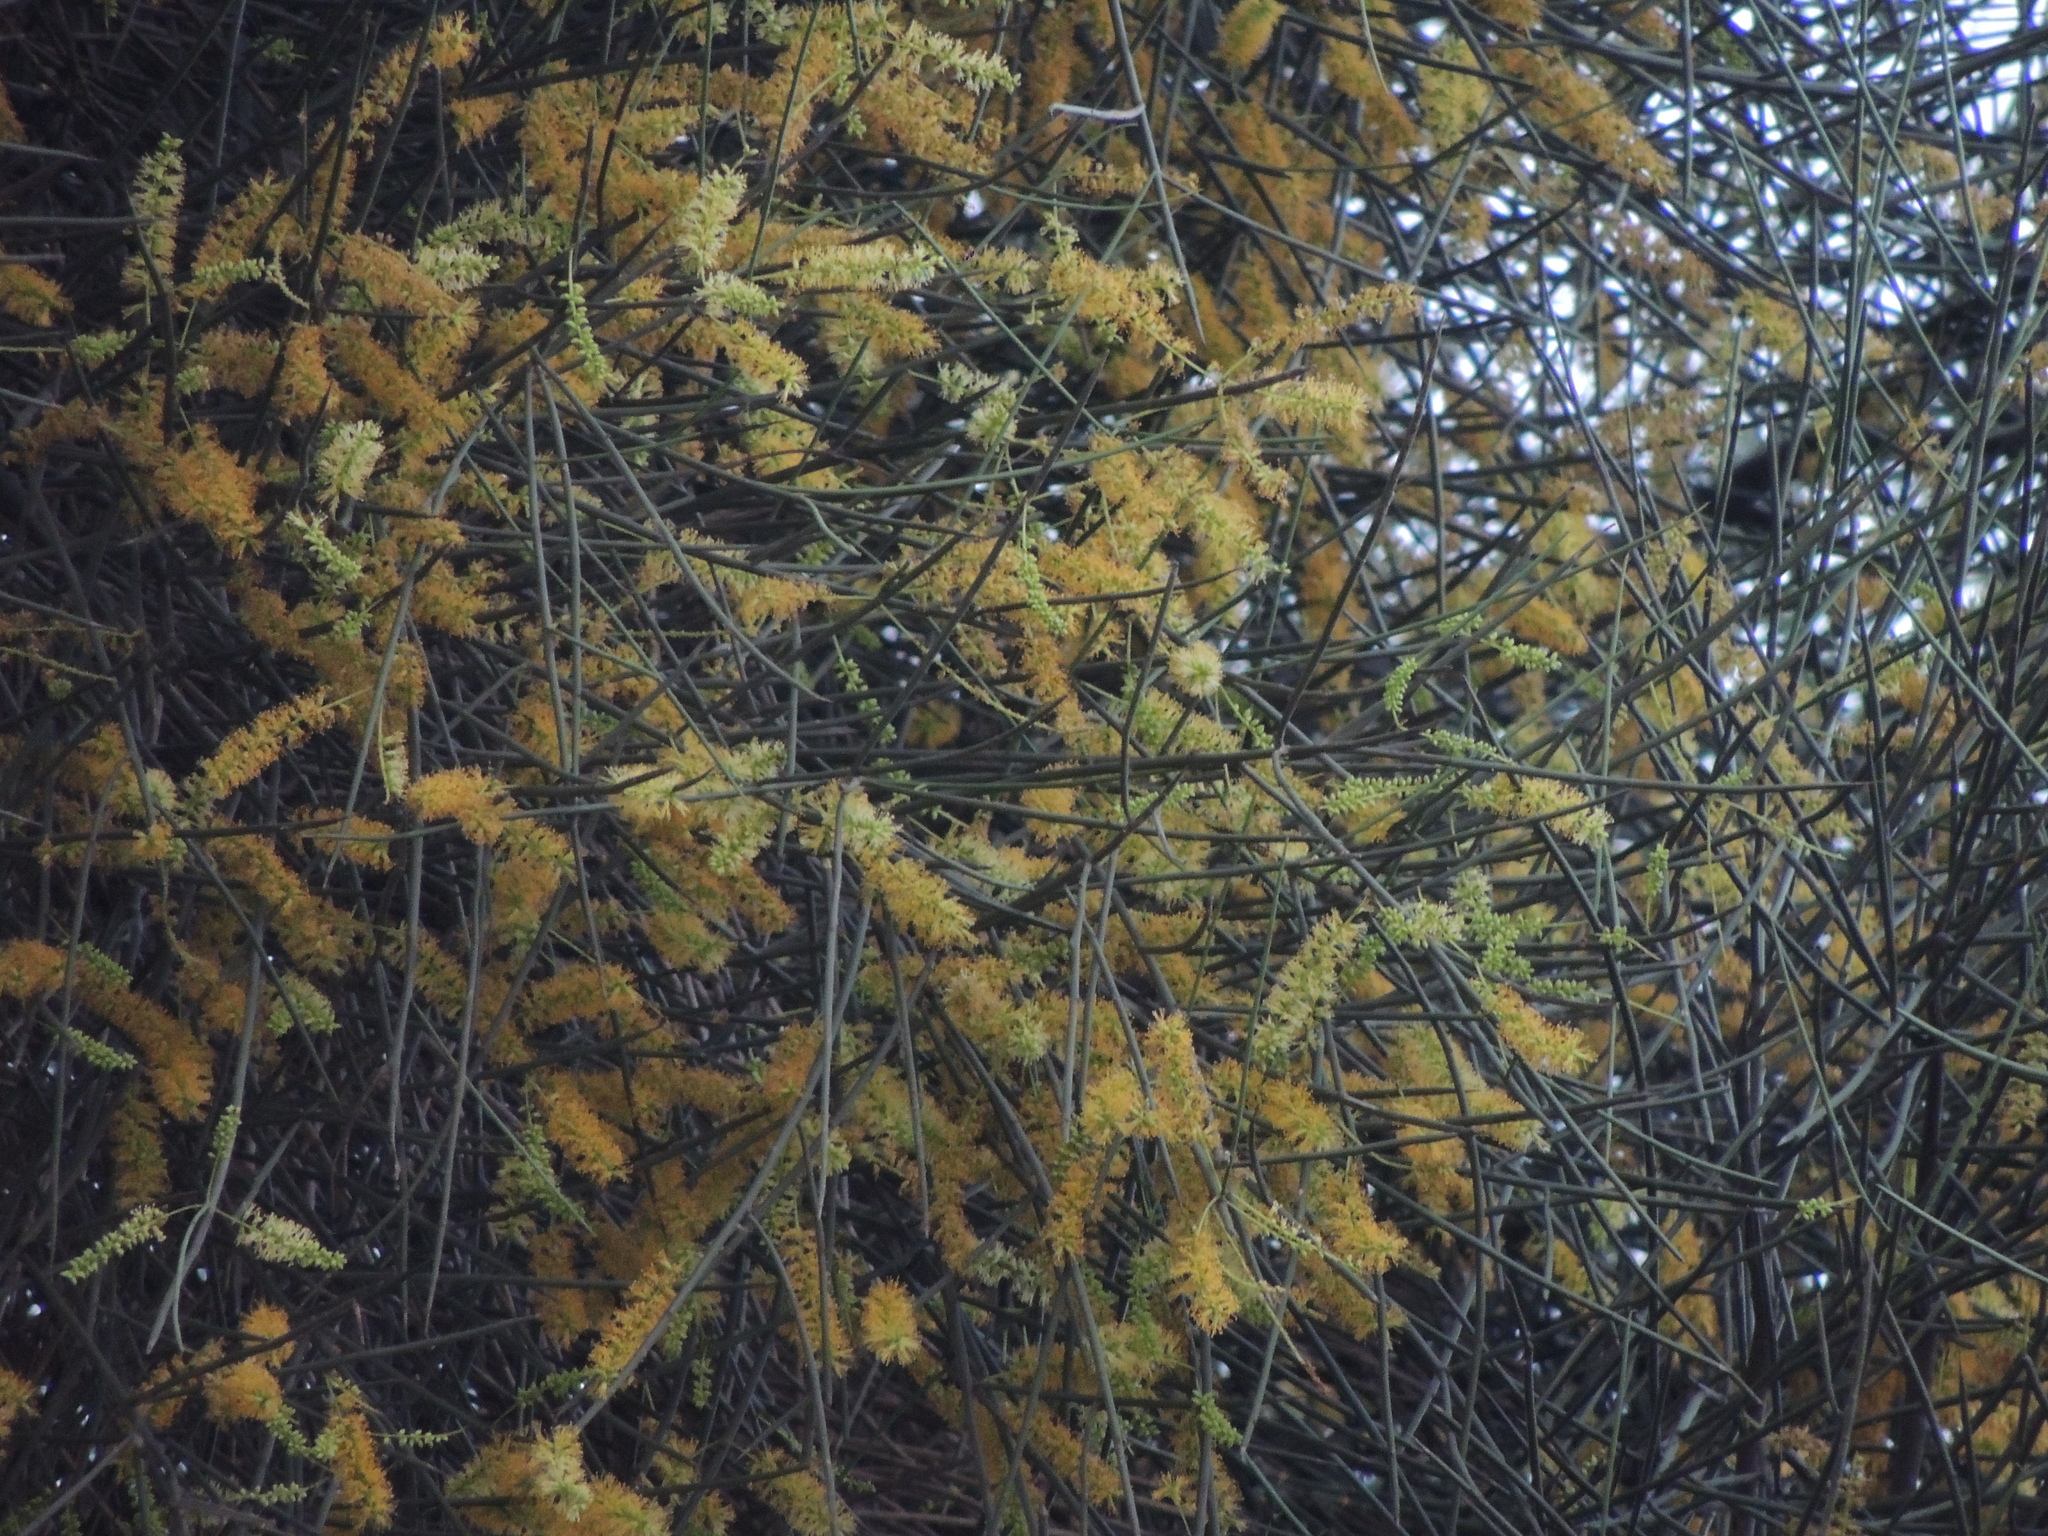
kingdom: Plantae
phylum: Tracheophyta
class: Magnoliopsida
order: Fabales
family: Fabaceae
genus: Prosopis
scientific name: Prosopis kuntzei
